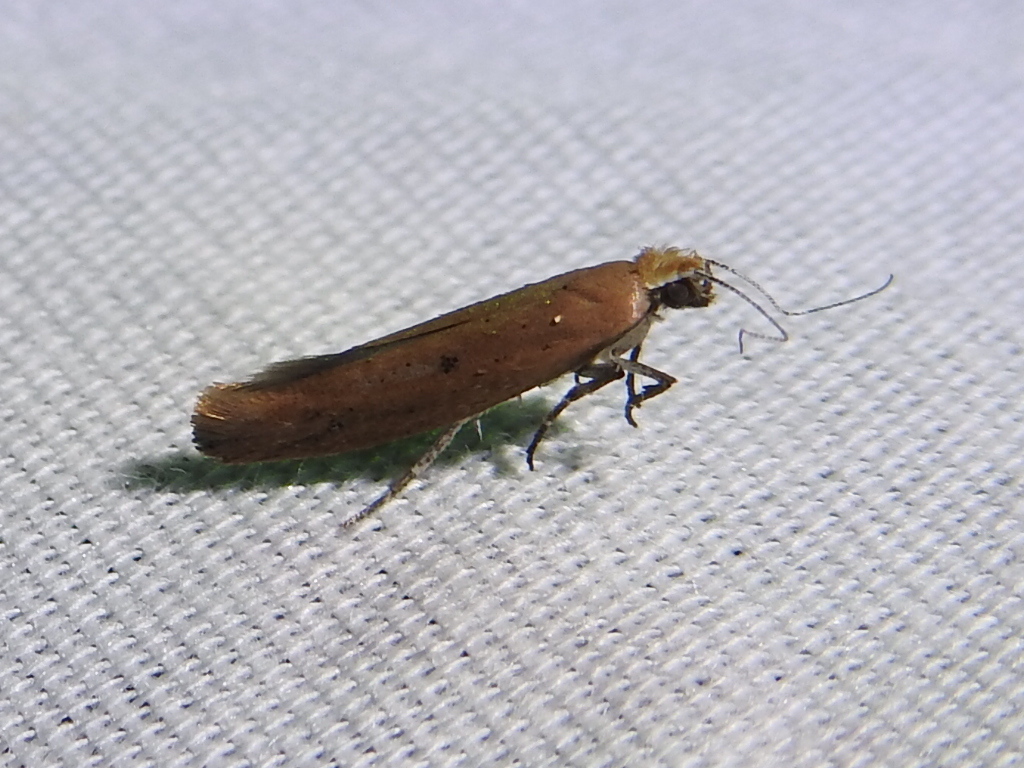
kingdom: Animalia
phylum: Arthropoda
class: Insecta
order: Lepidoptera
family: Ypsolophidae
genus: Ypsolopha
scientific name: Ypsolopha unicipunctella
